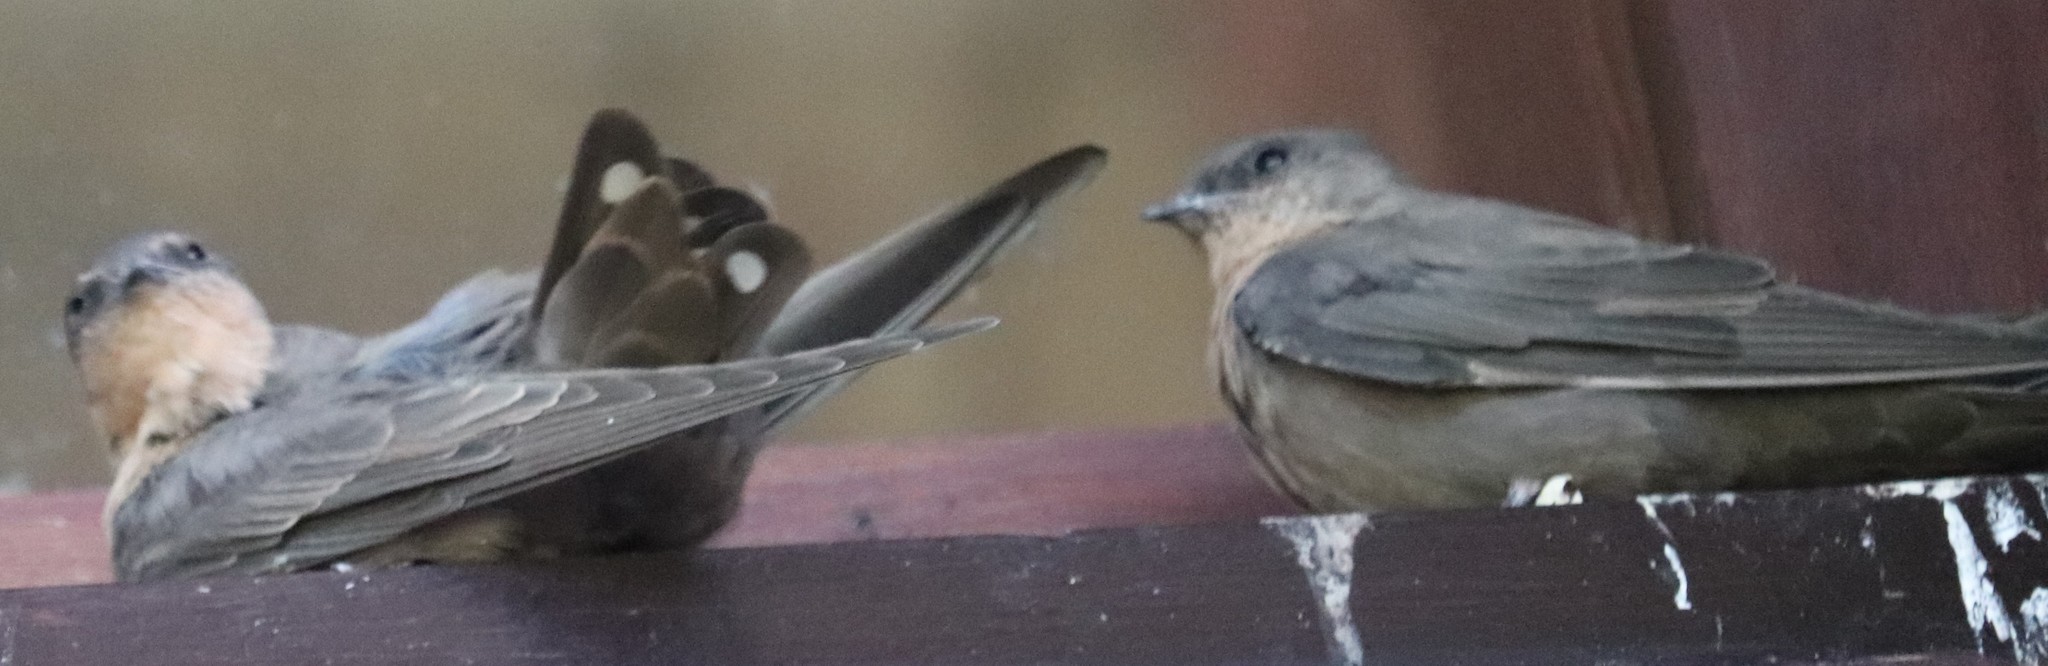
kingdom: Animalia
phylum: Chordata
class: Aves
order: Passeriformes
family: Hirundinidae
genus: Ptyonoprogne
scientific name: Ptyonoprogne fuligula
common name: Rock martin
